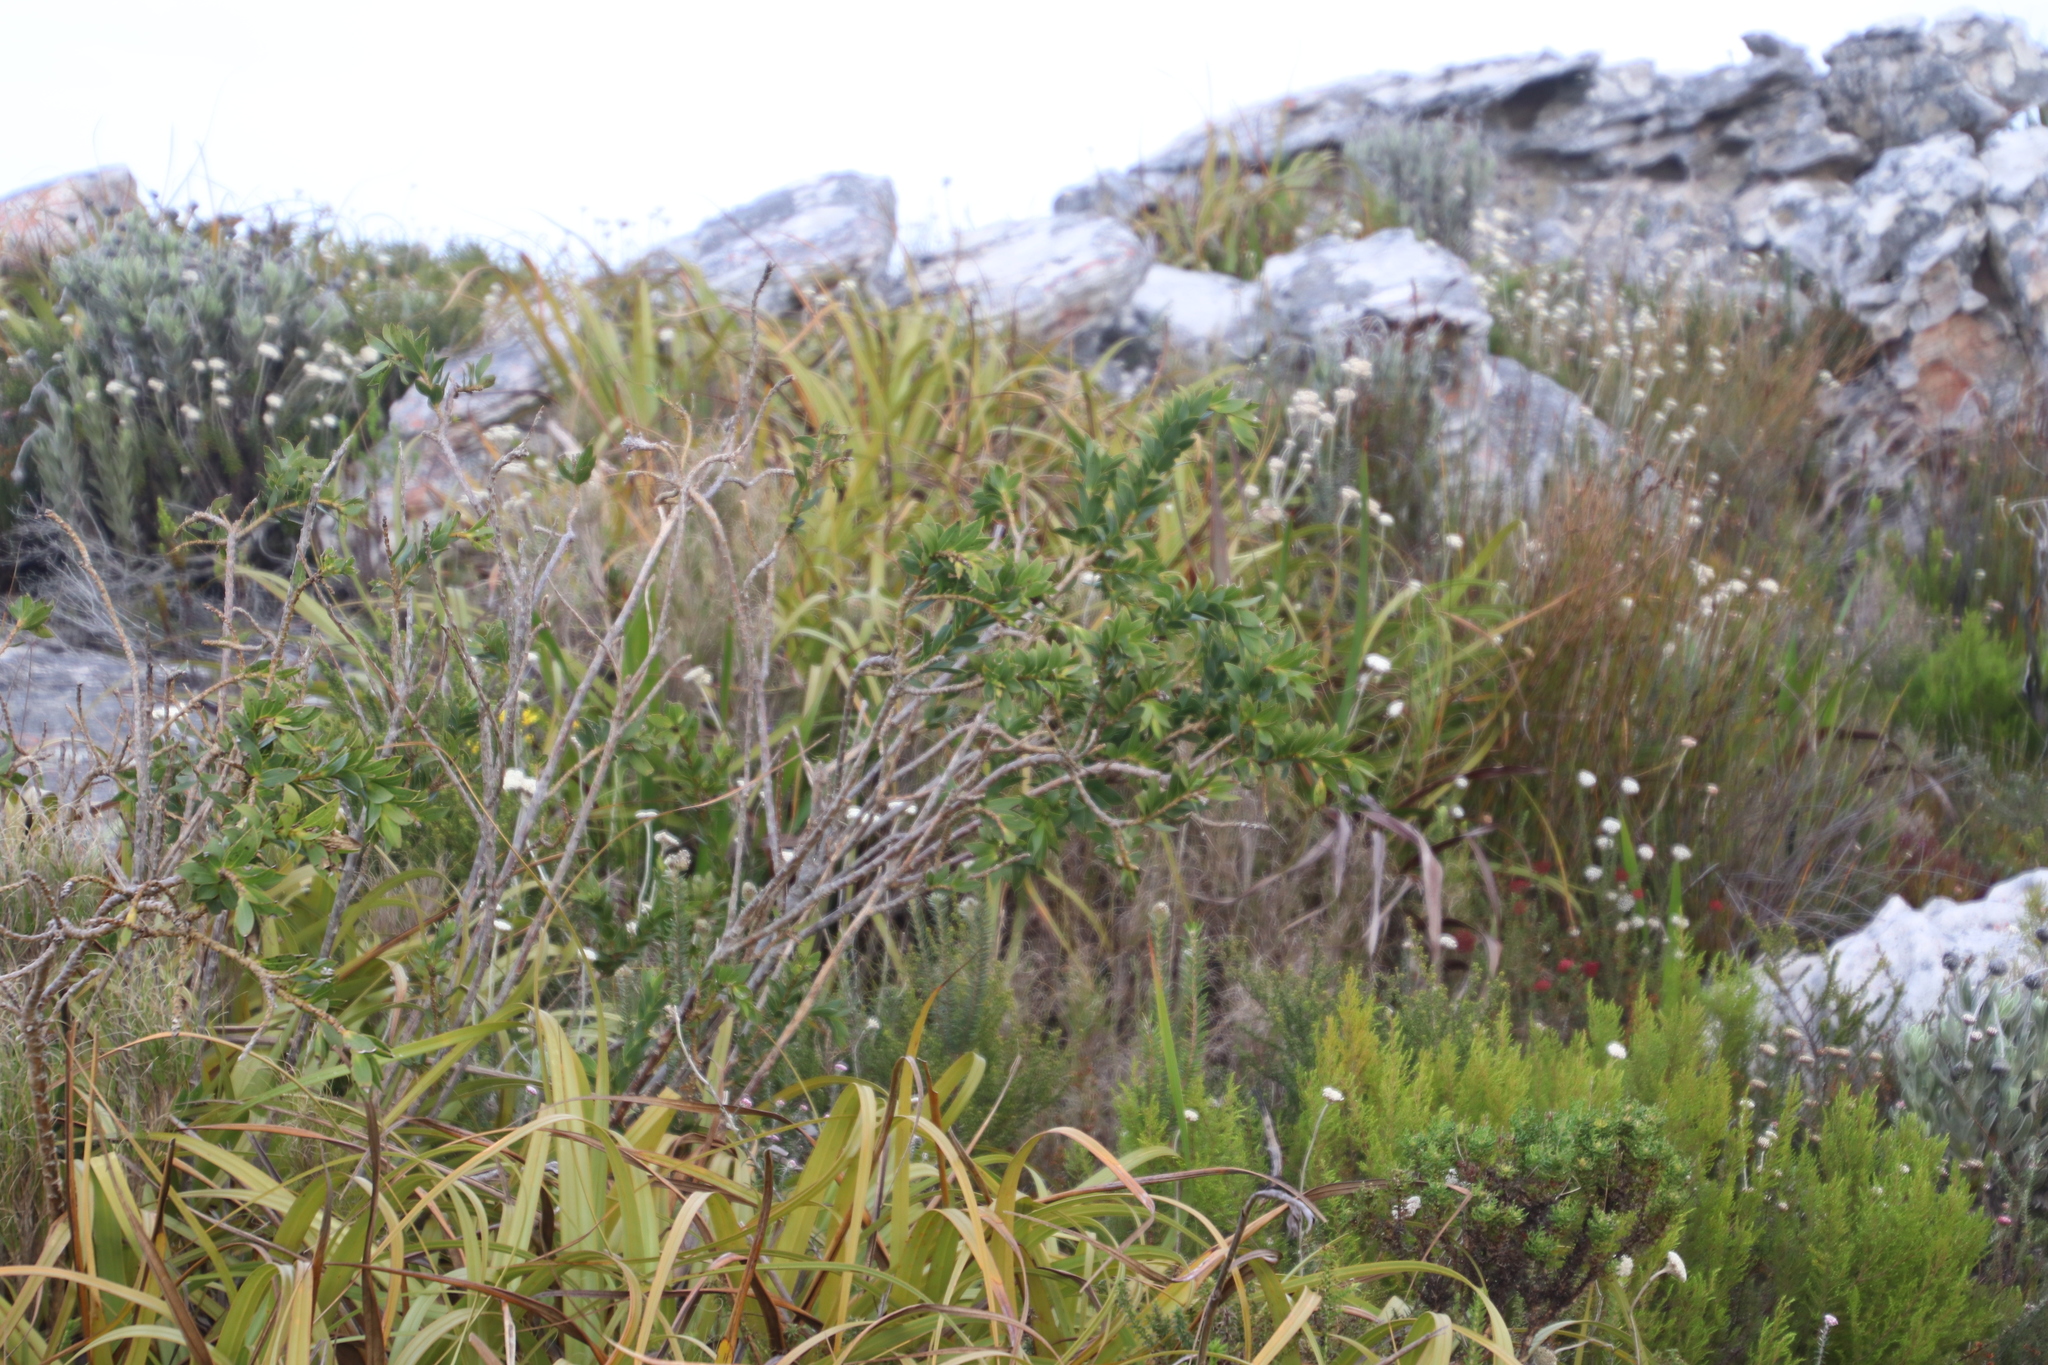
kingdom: Plantae
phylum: Tracheophyta
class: Magnoliopsida
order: Fabales
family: Fabaceae
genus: Liparia
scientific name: Liparia splendens
